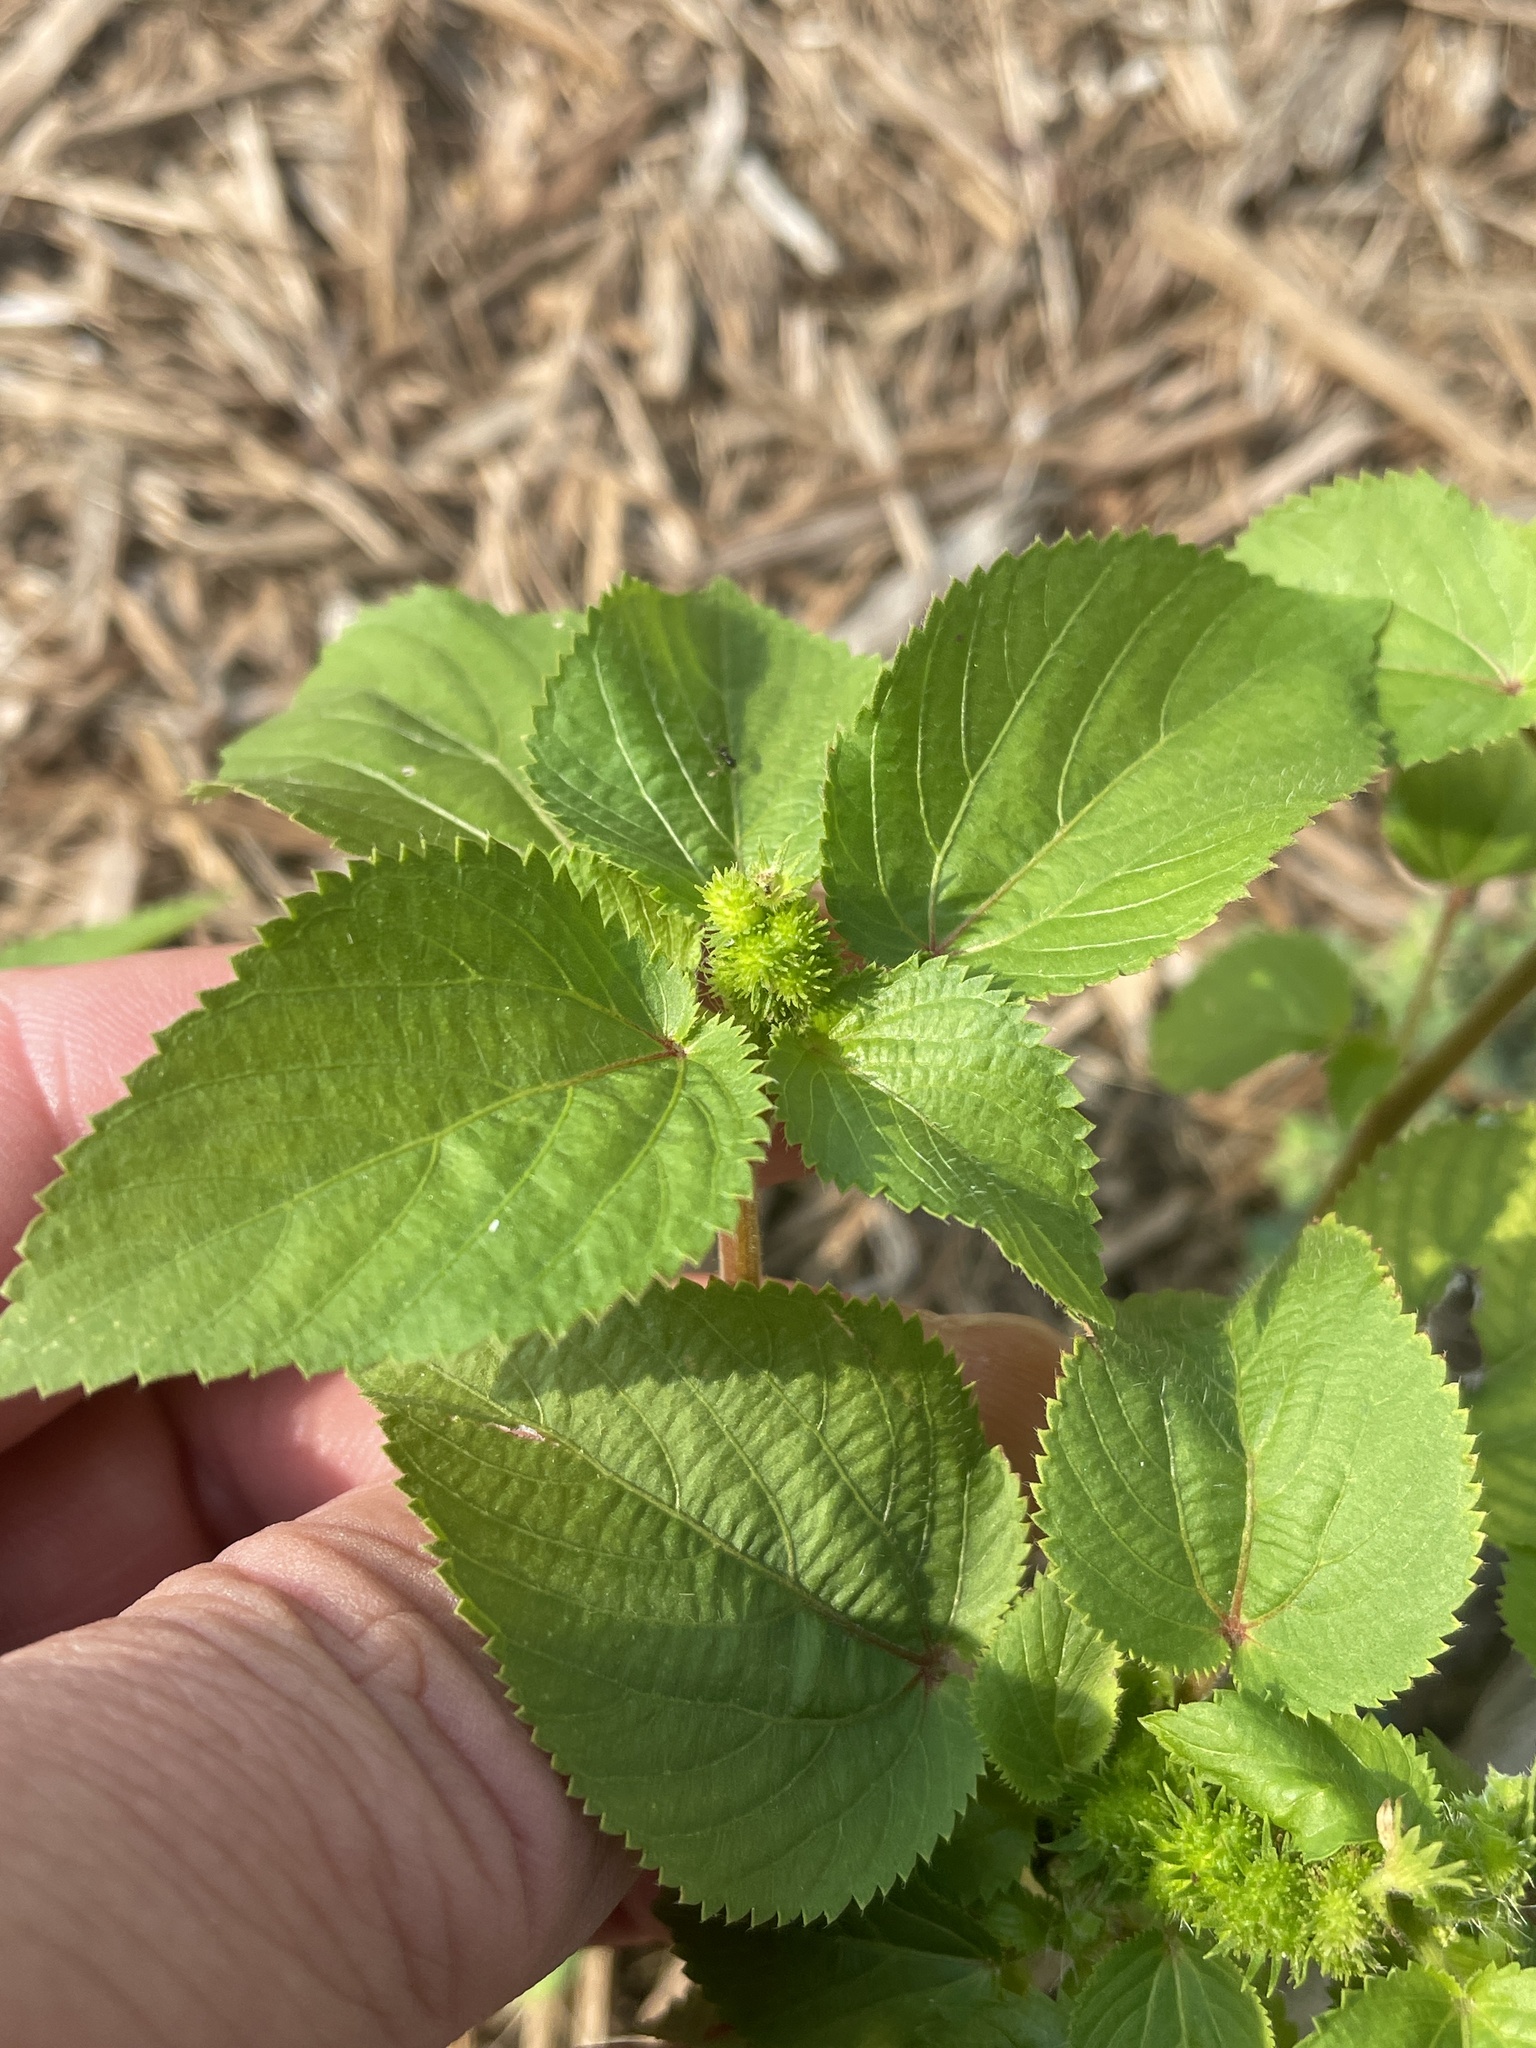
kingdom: Plantae
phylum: Tracheophyta
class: Magnoliopsida
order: Malpighiales
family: Euphorbiaceae
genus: Acalypha
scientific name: Acalypha ostryifolia
